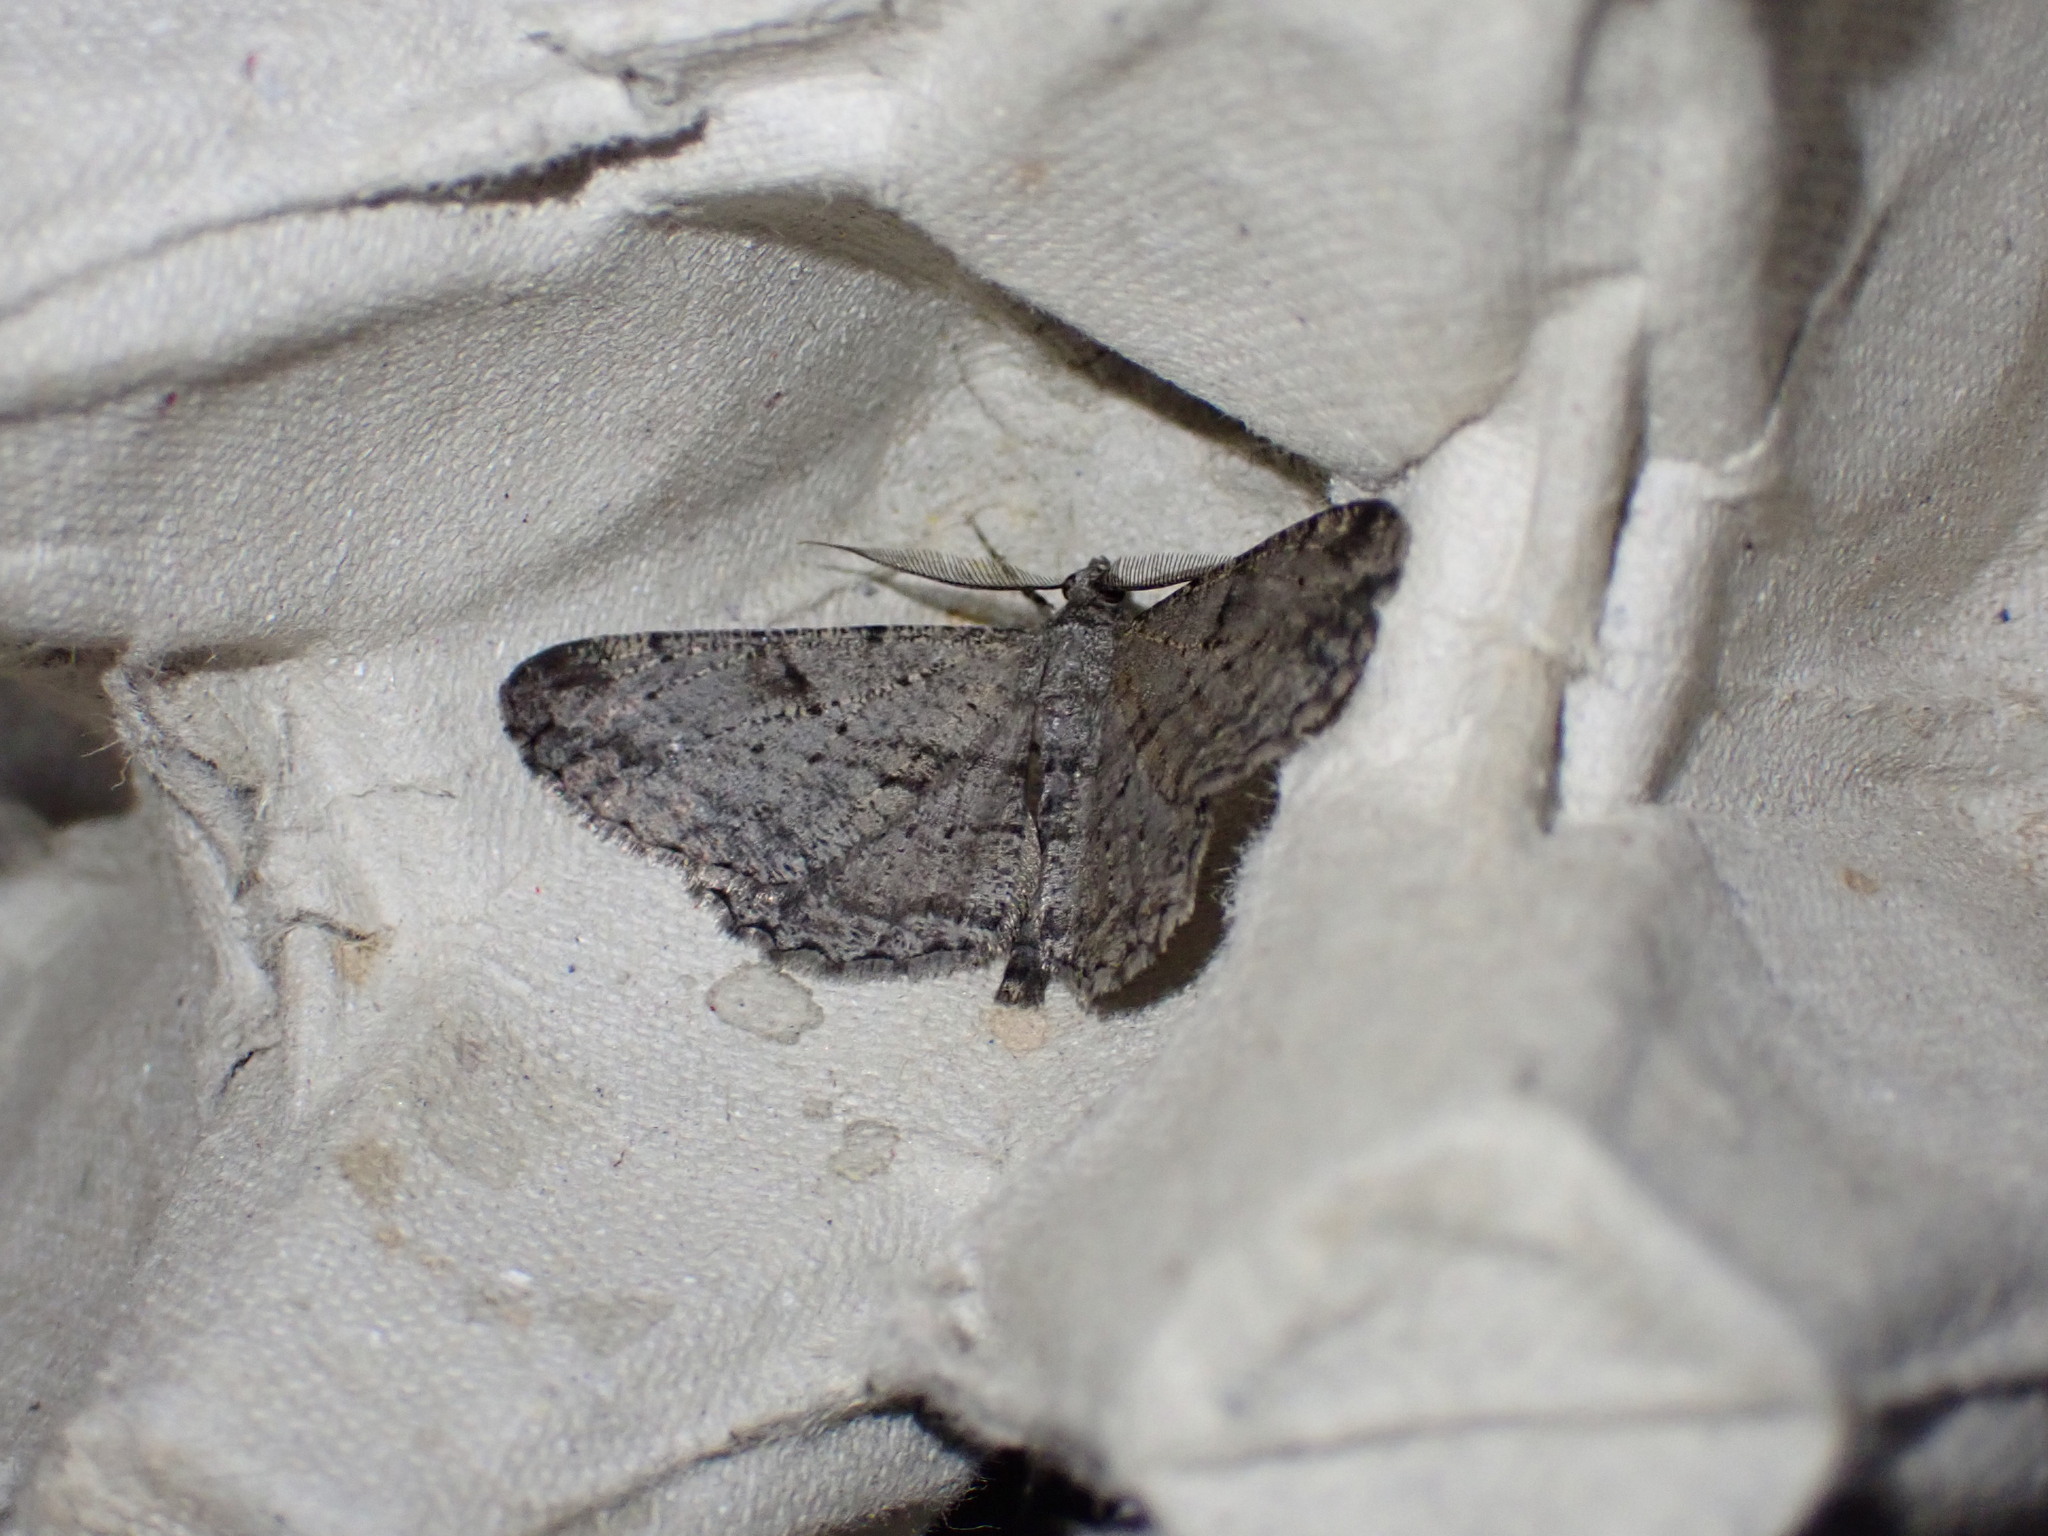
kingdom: Animalia
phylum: Arthropoda
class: Insecta
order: Lepidoptera
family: Geometridae
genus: Peribatodes
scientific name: Peribatodes rhomboidaria
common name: Willow beauty
